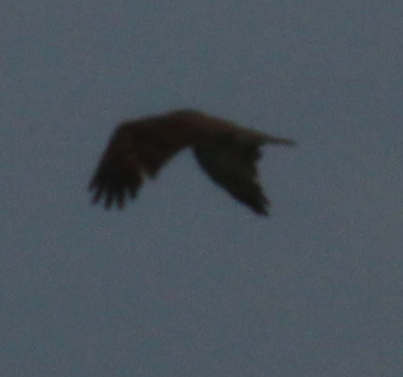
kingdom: Animalia
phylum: Chordata
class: Aves
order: Accipitriformes
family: Pandionidae
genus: Pandion
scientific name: Pandion haliaetus
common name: Osprey
